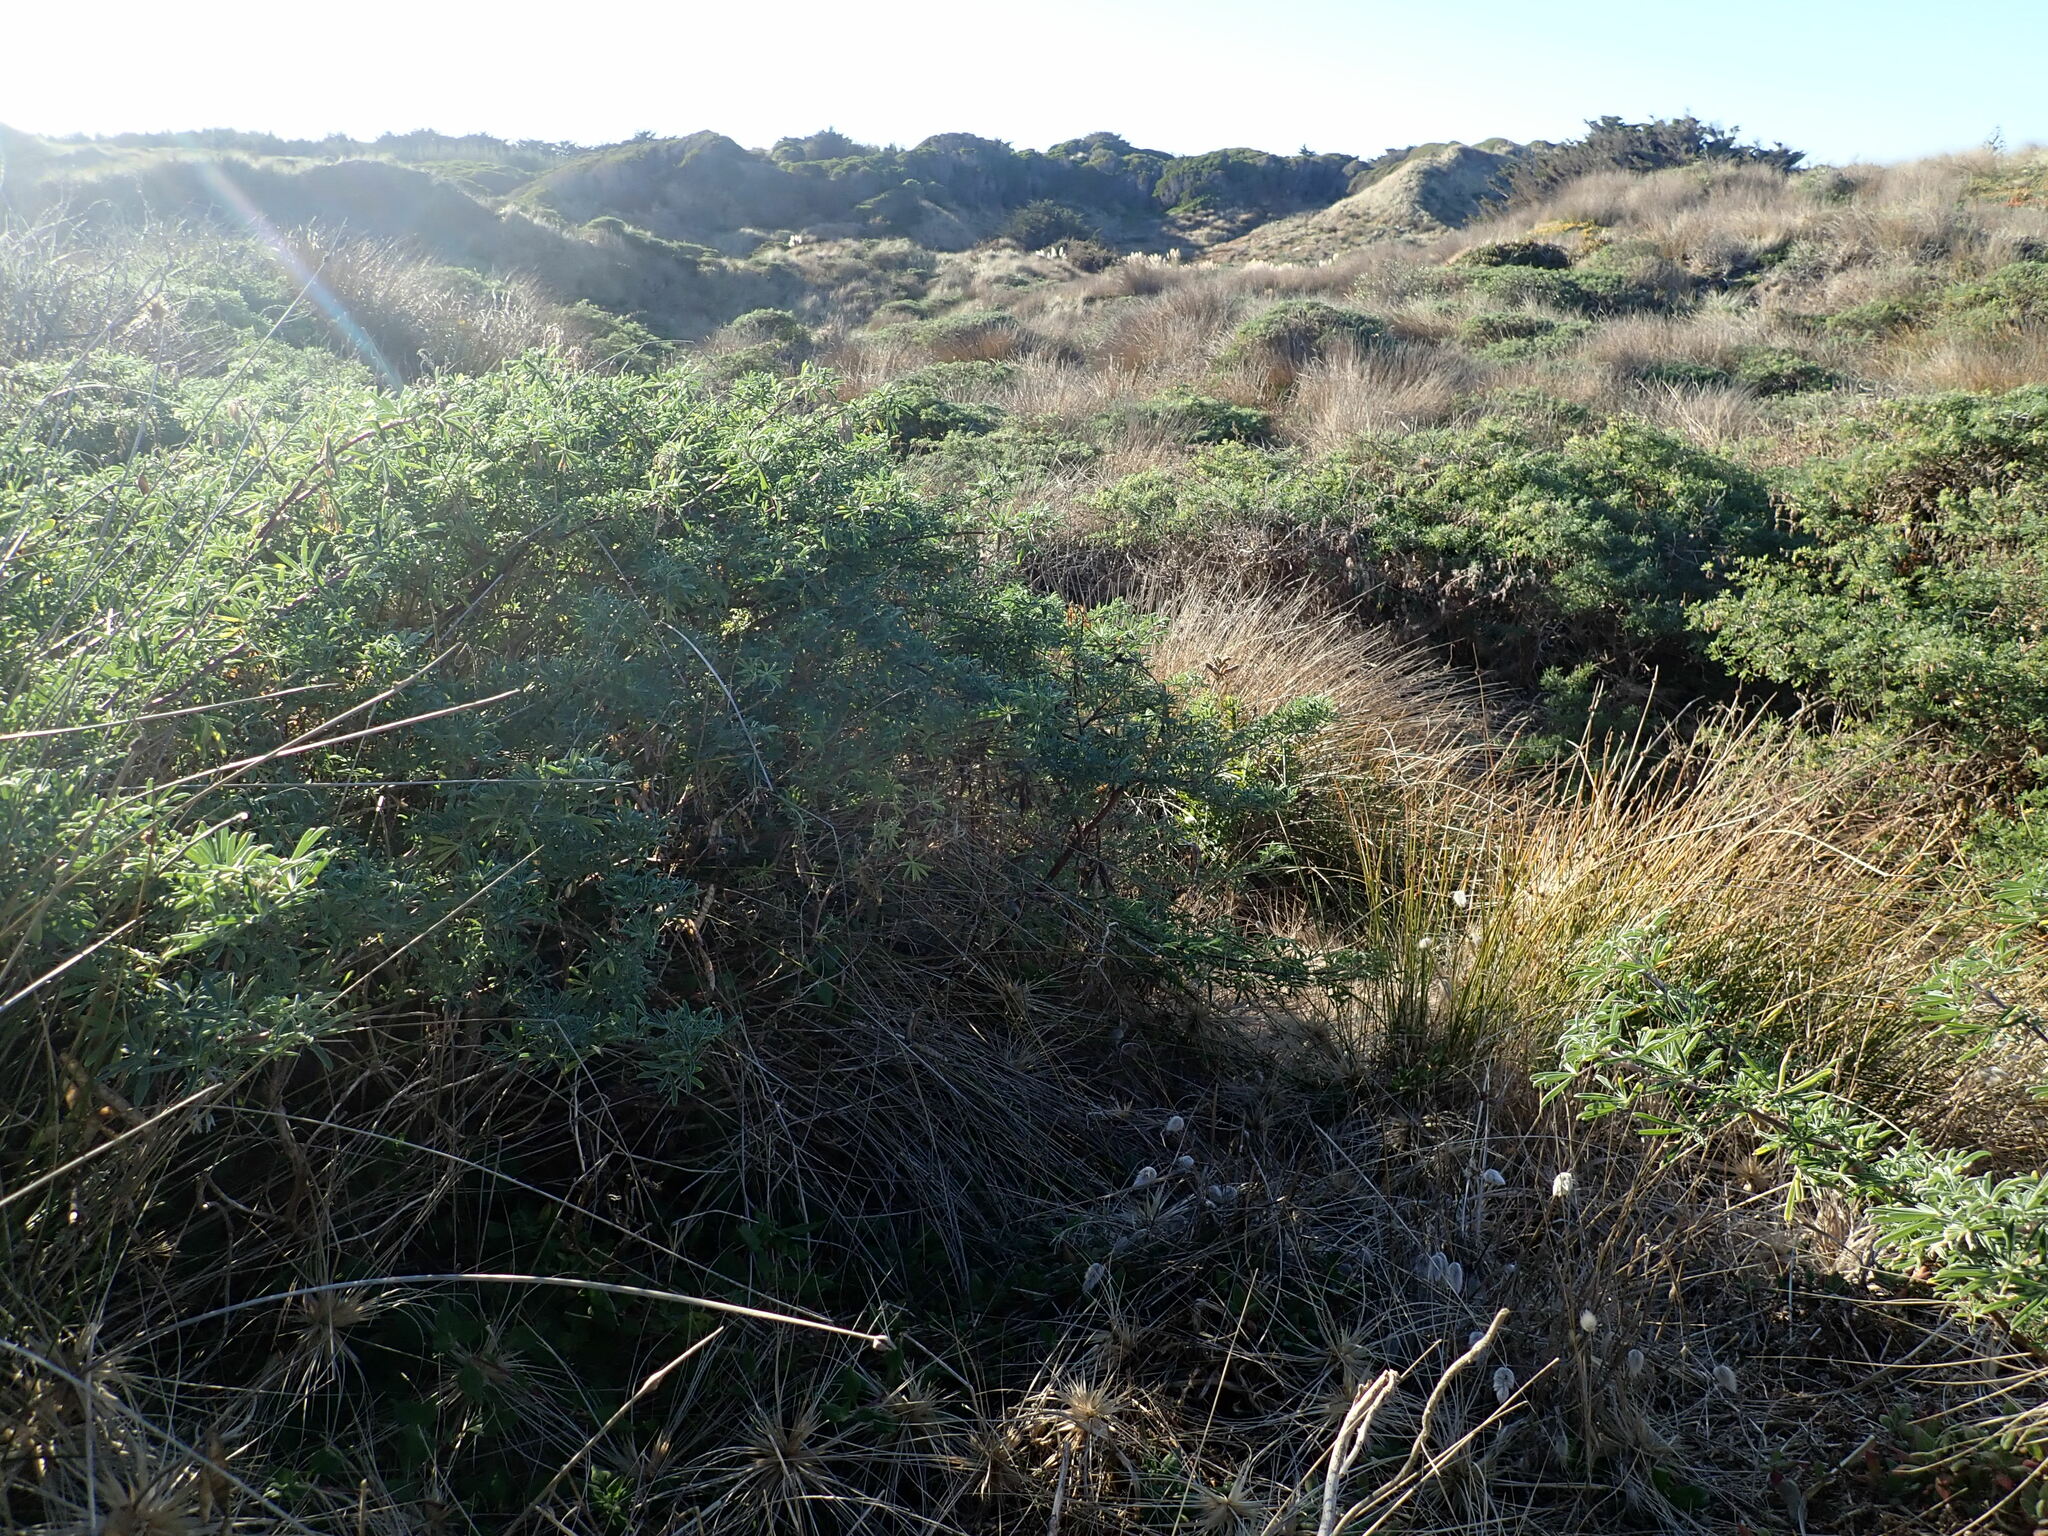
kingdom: Plantae
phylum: Tracheophyta
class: Magnoliopsida
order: Fabales
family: Fabaceae
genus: Lupinus
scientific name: Lupinus arboreus
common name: Yellow bush lupine
